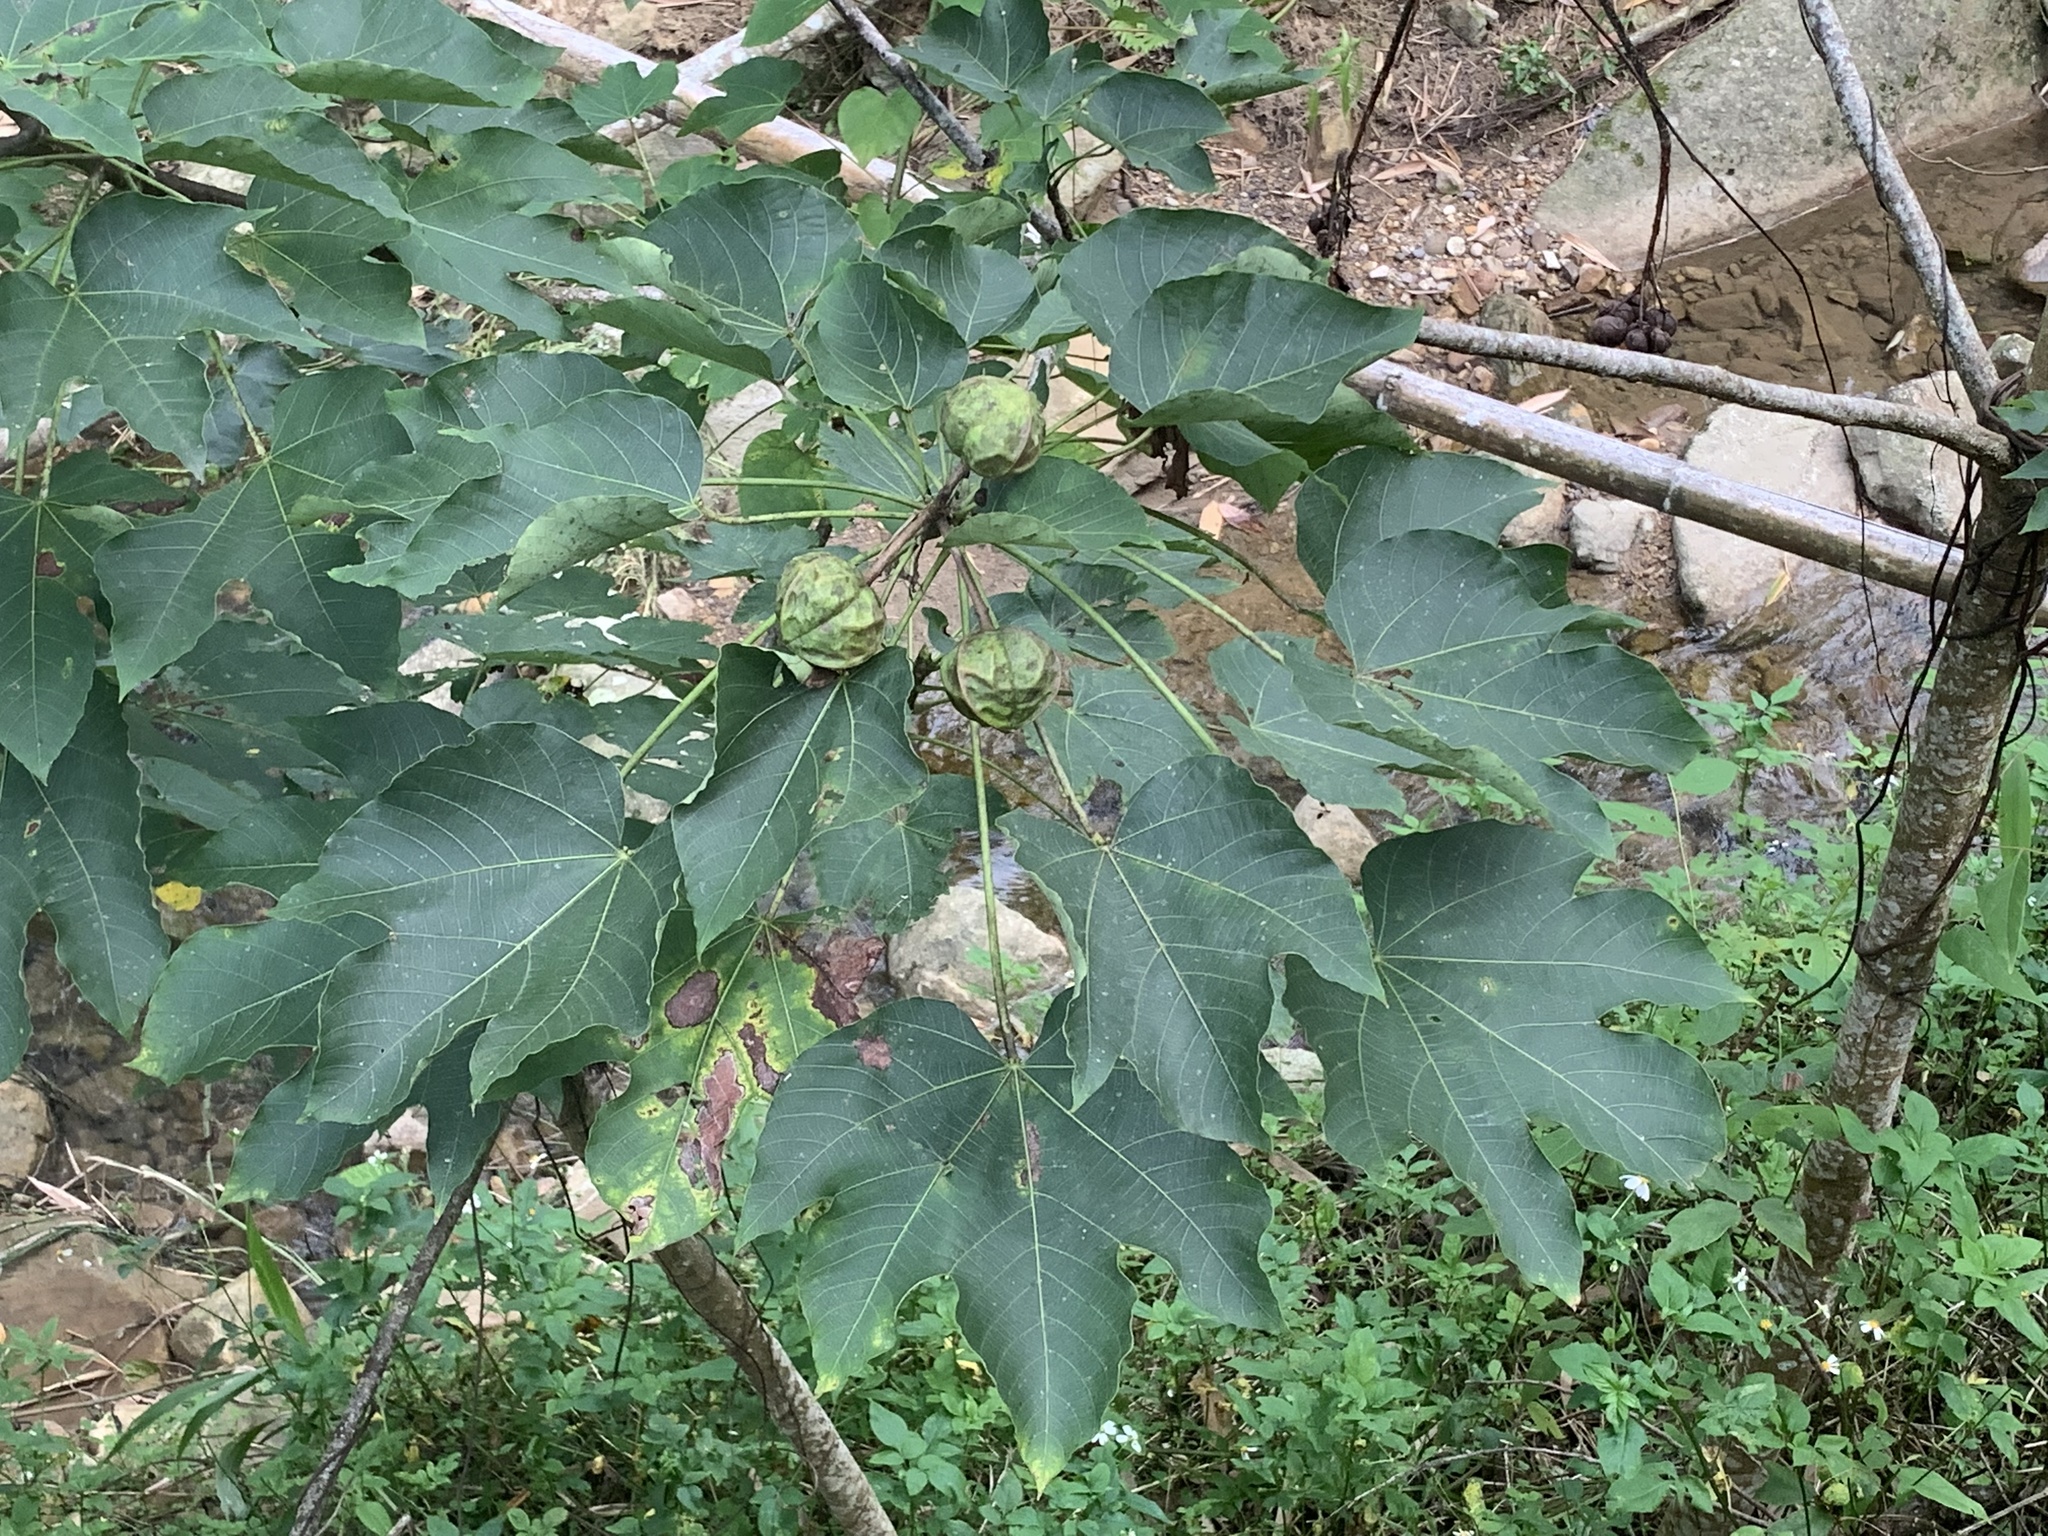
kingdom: Plantae
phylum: Tracheophyta
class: Magnoliopsida
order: Malpighiales
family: Euphorbiaceae
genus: Vernicia
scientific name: Vernicia montana
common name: Mu oil tree
